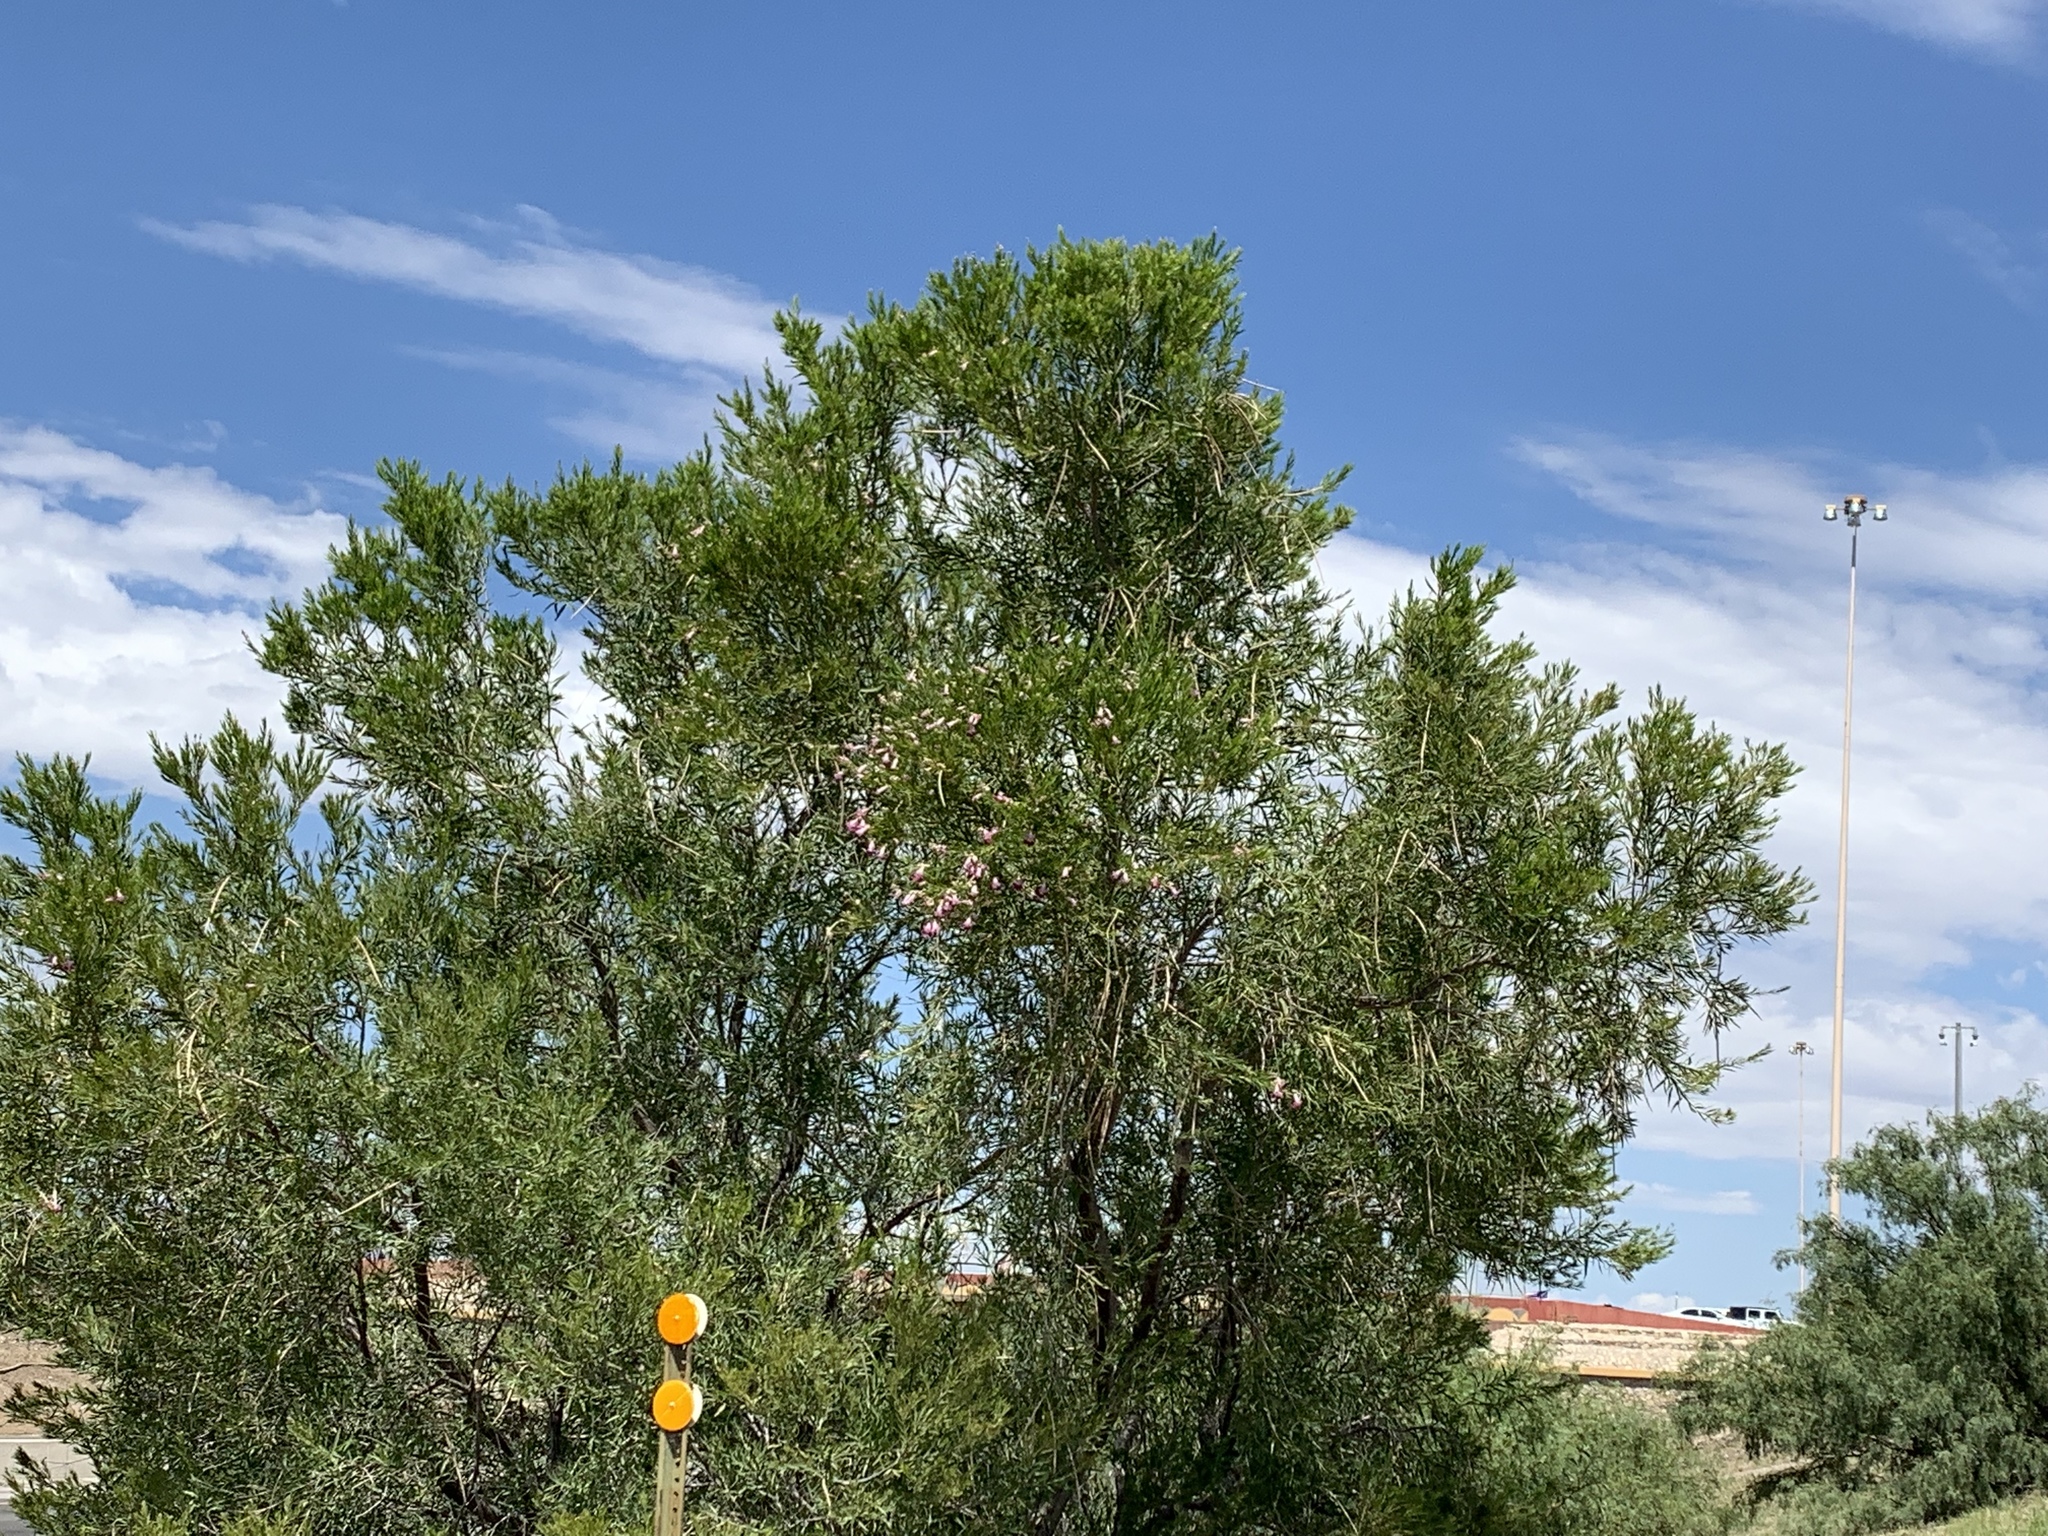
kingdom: Plantae
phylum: Tracheophyta
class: Magnoliopsida
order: Lamiales
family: Bignoniaceae
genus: Chilopsis
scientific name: Chilopsis linearis
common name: Desert-willow
